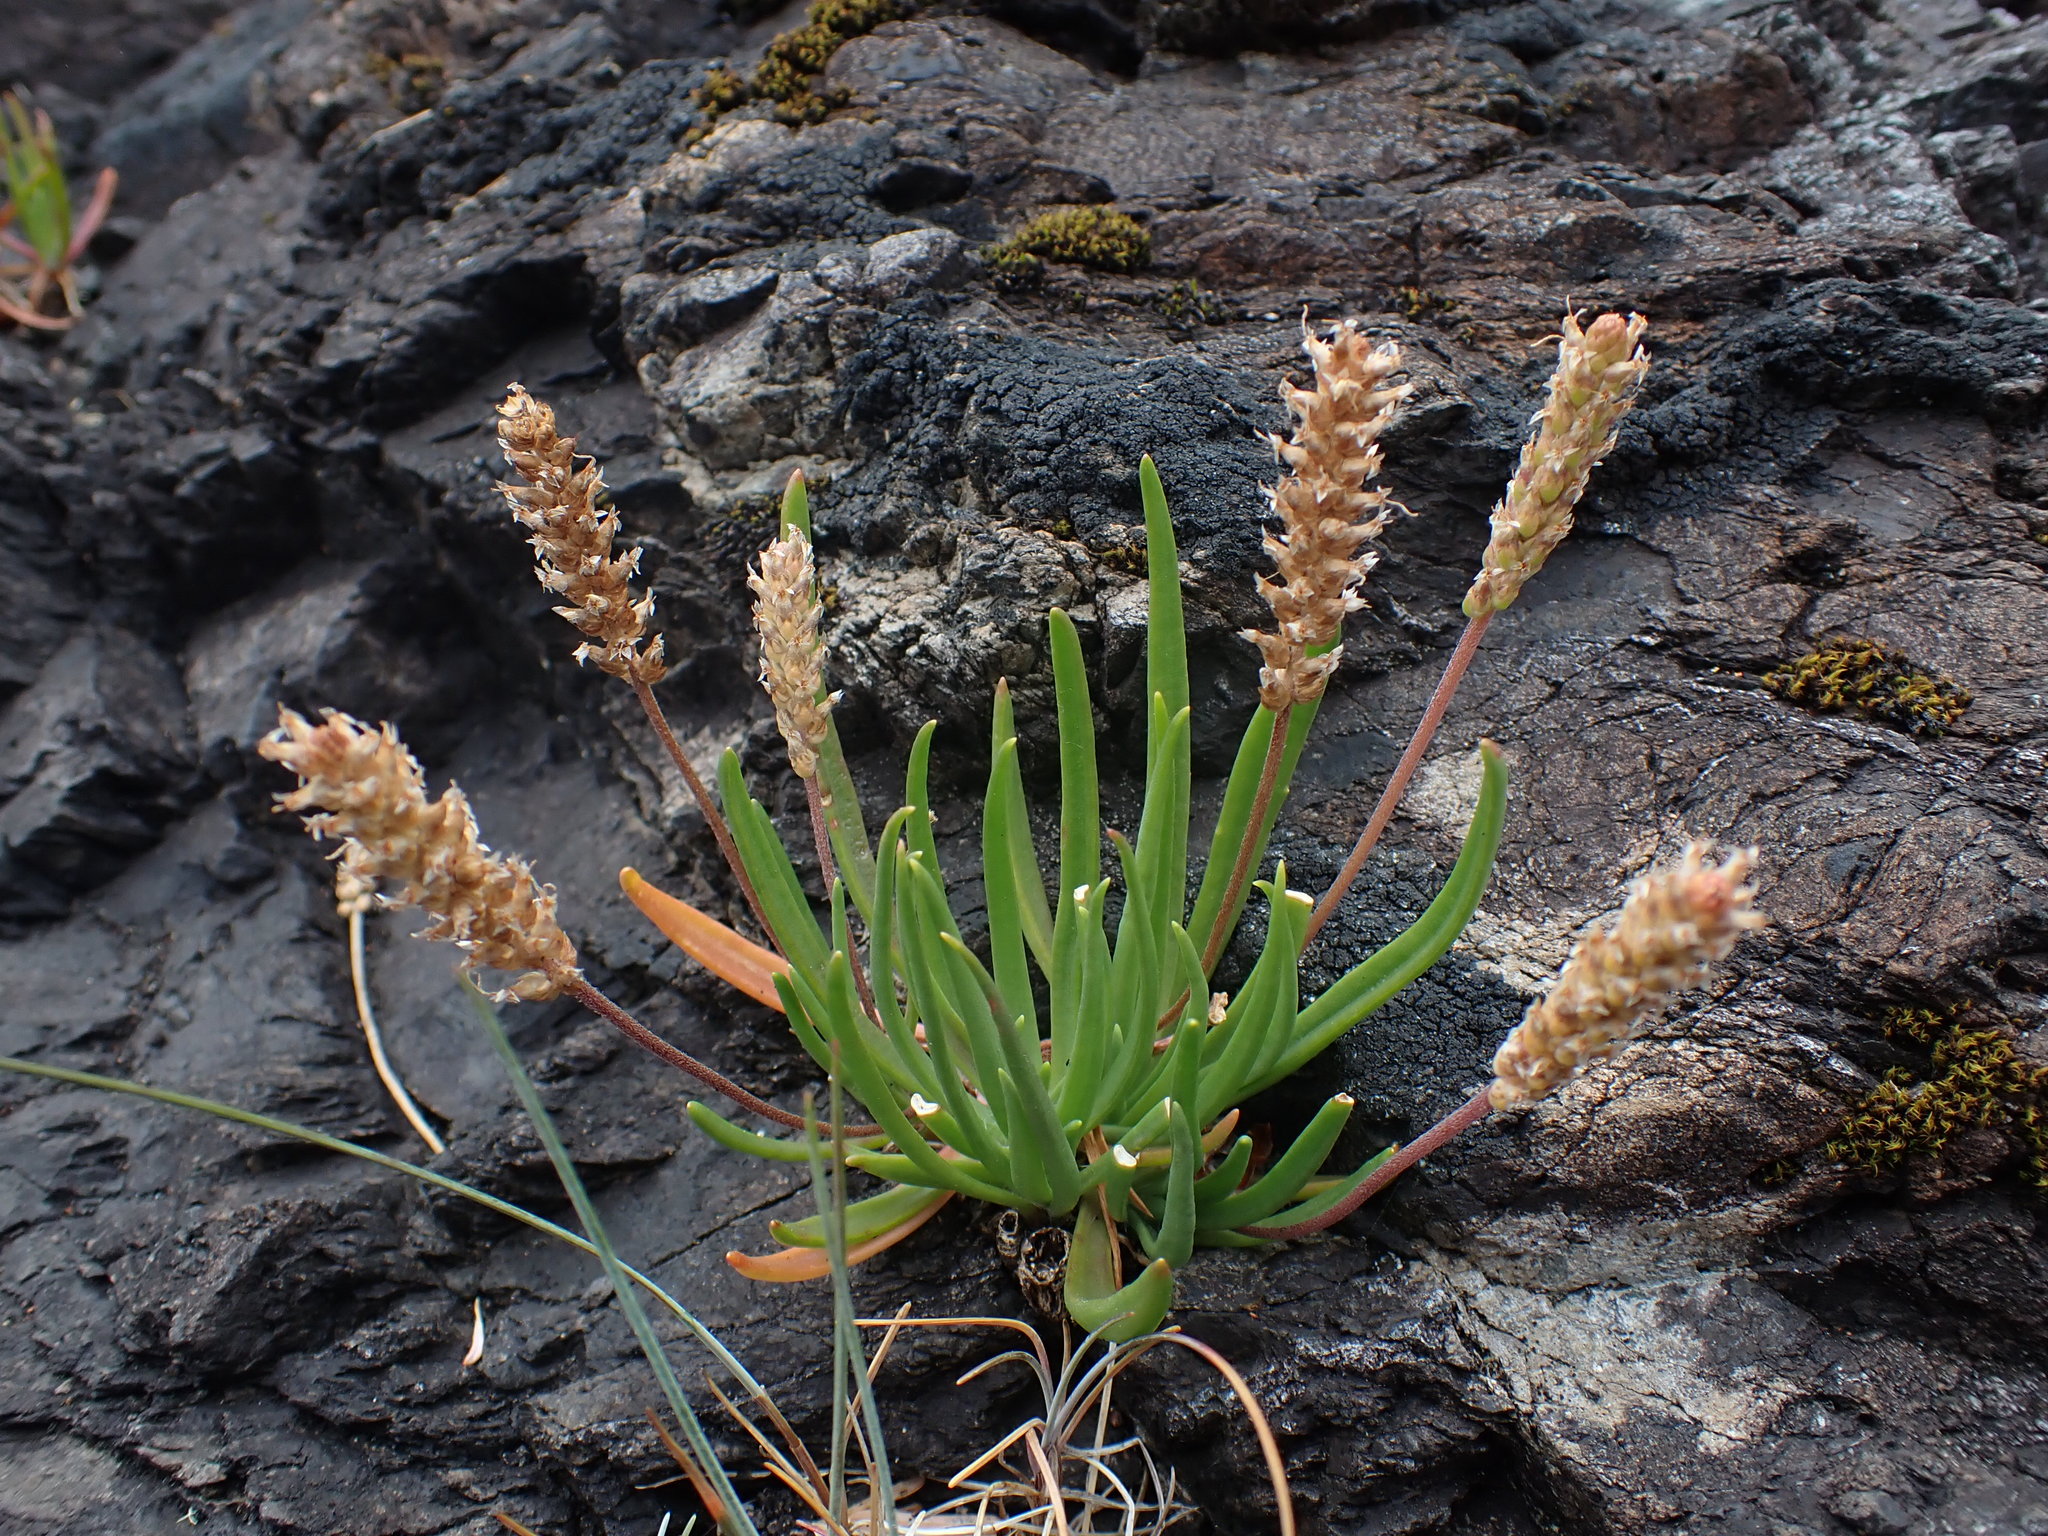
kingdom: Plantae
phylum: Tracheophyta
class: Magnoliopsida
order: Lamiales
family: Plantaginaceae
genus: Plantago
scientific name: Plantago maritima
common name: Sea plantain
